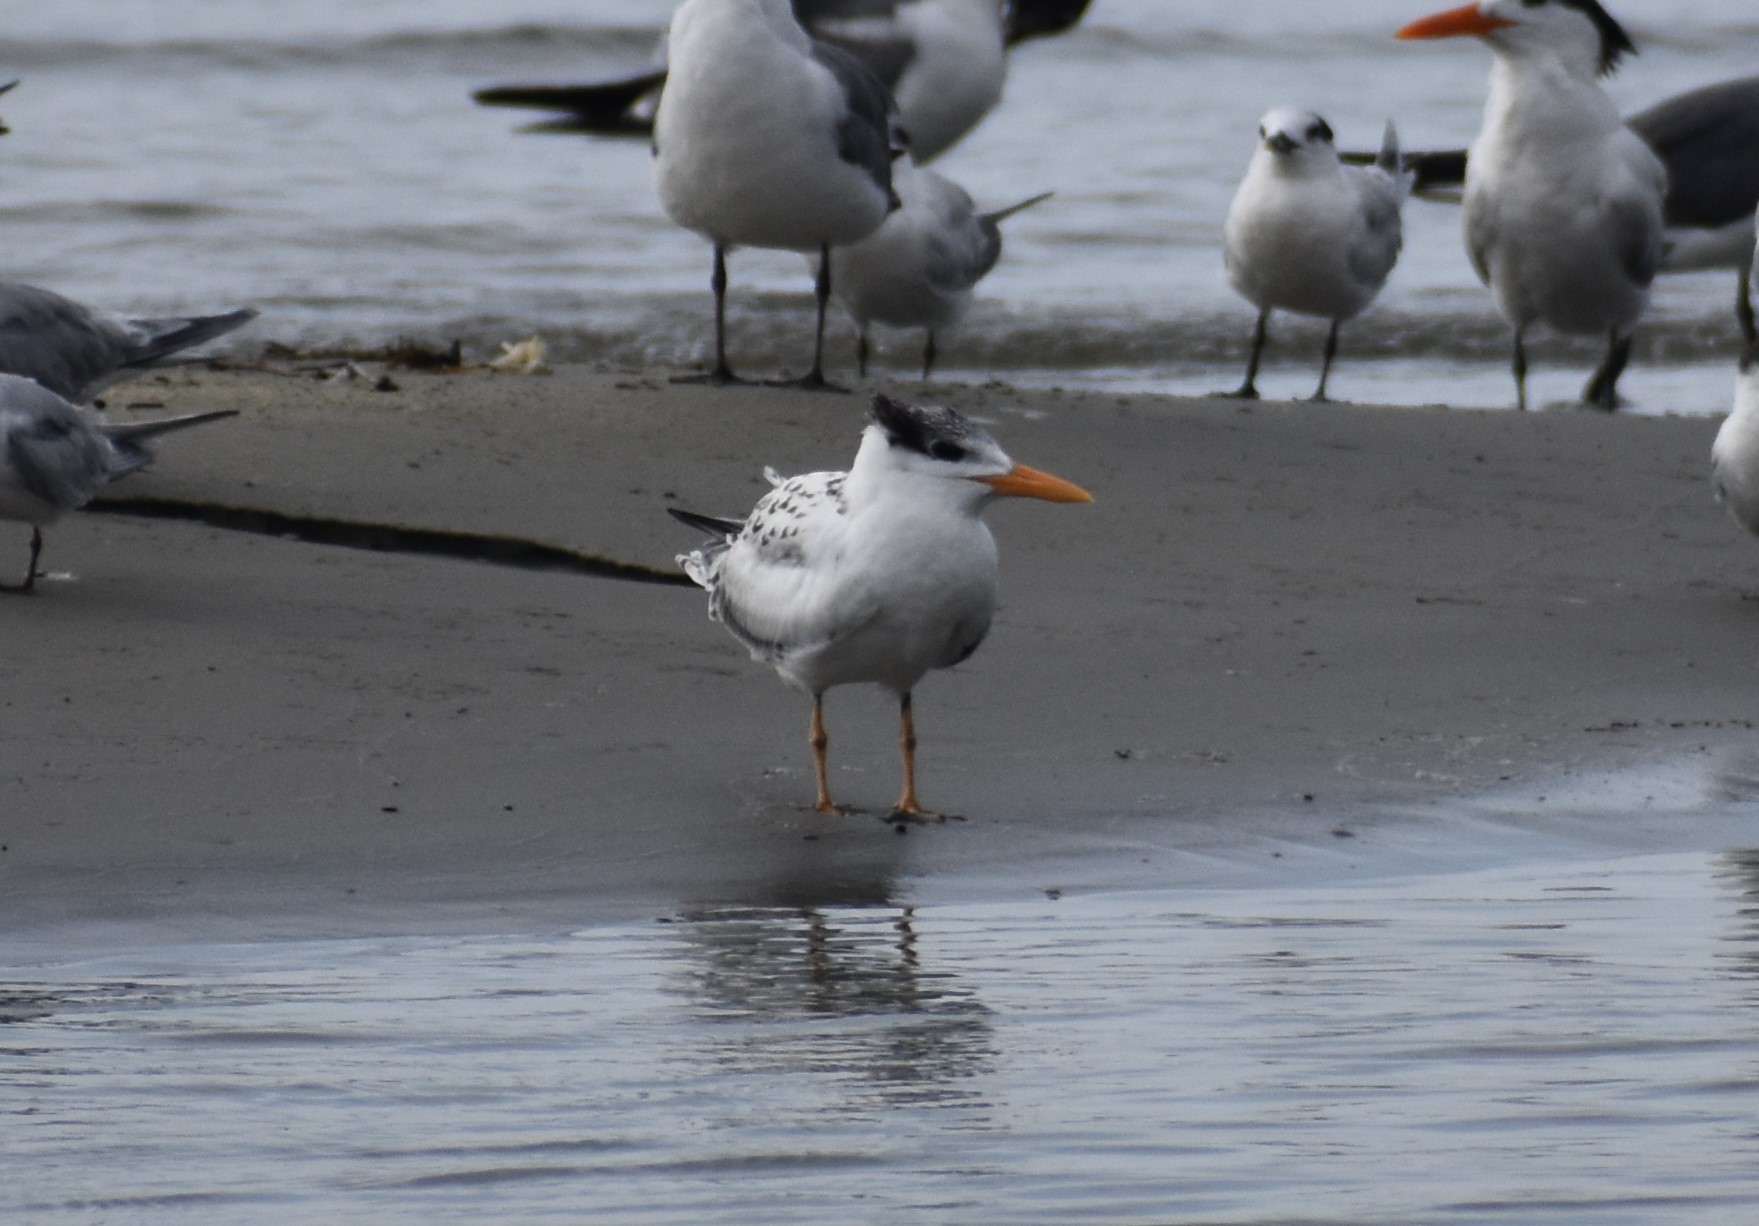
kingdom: Animalia
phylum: Chordata
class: Aves
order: Charadriiformes
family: Laridae
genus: Thalasseus
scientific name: Thalasseus maximus
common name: Royal tern
